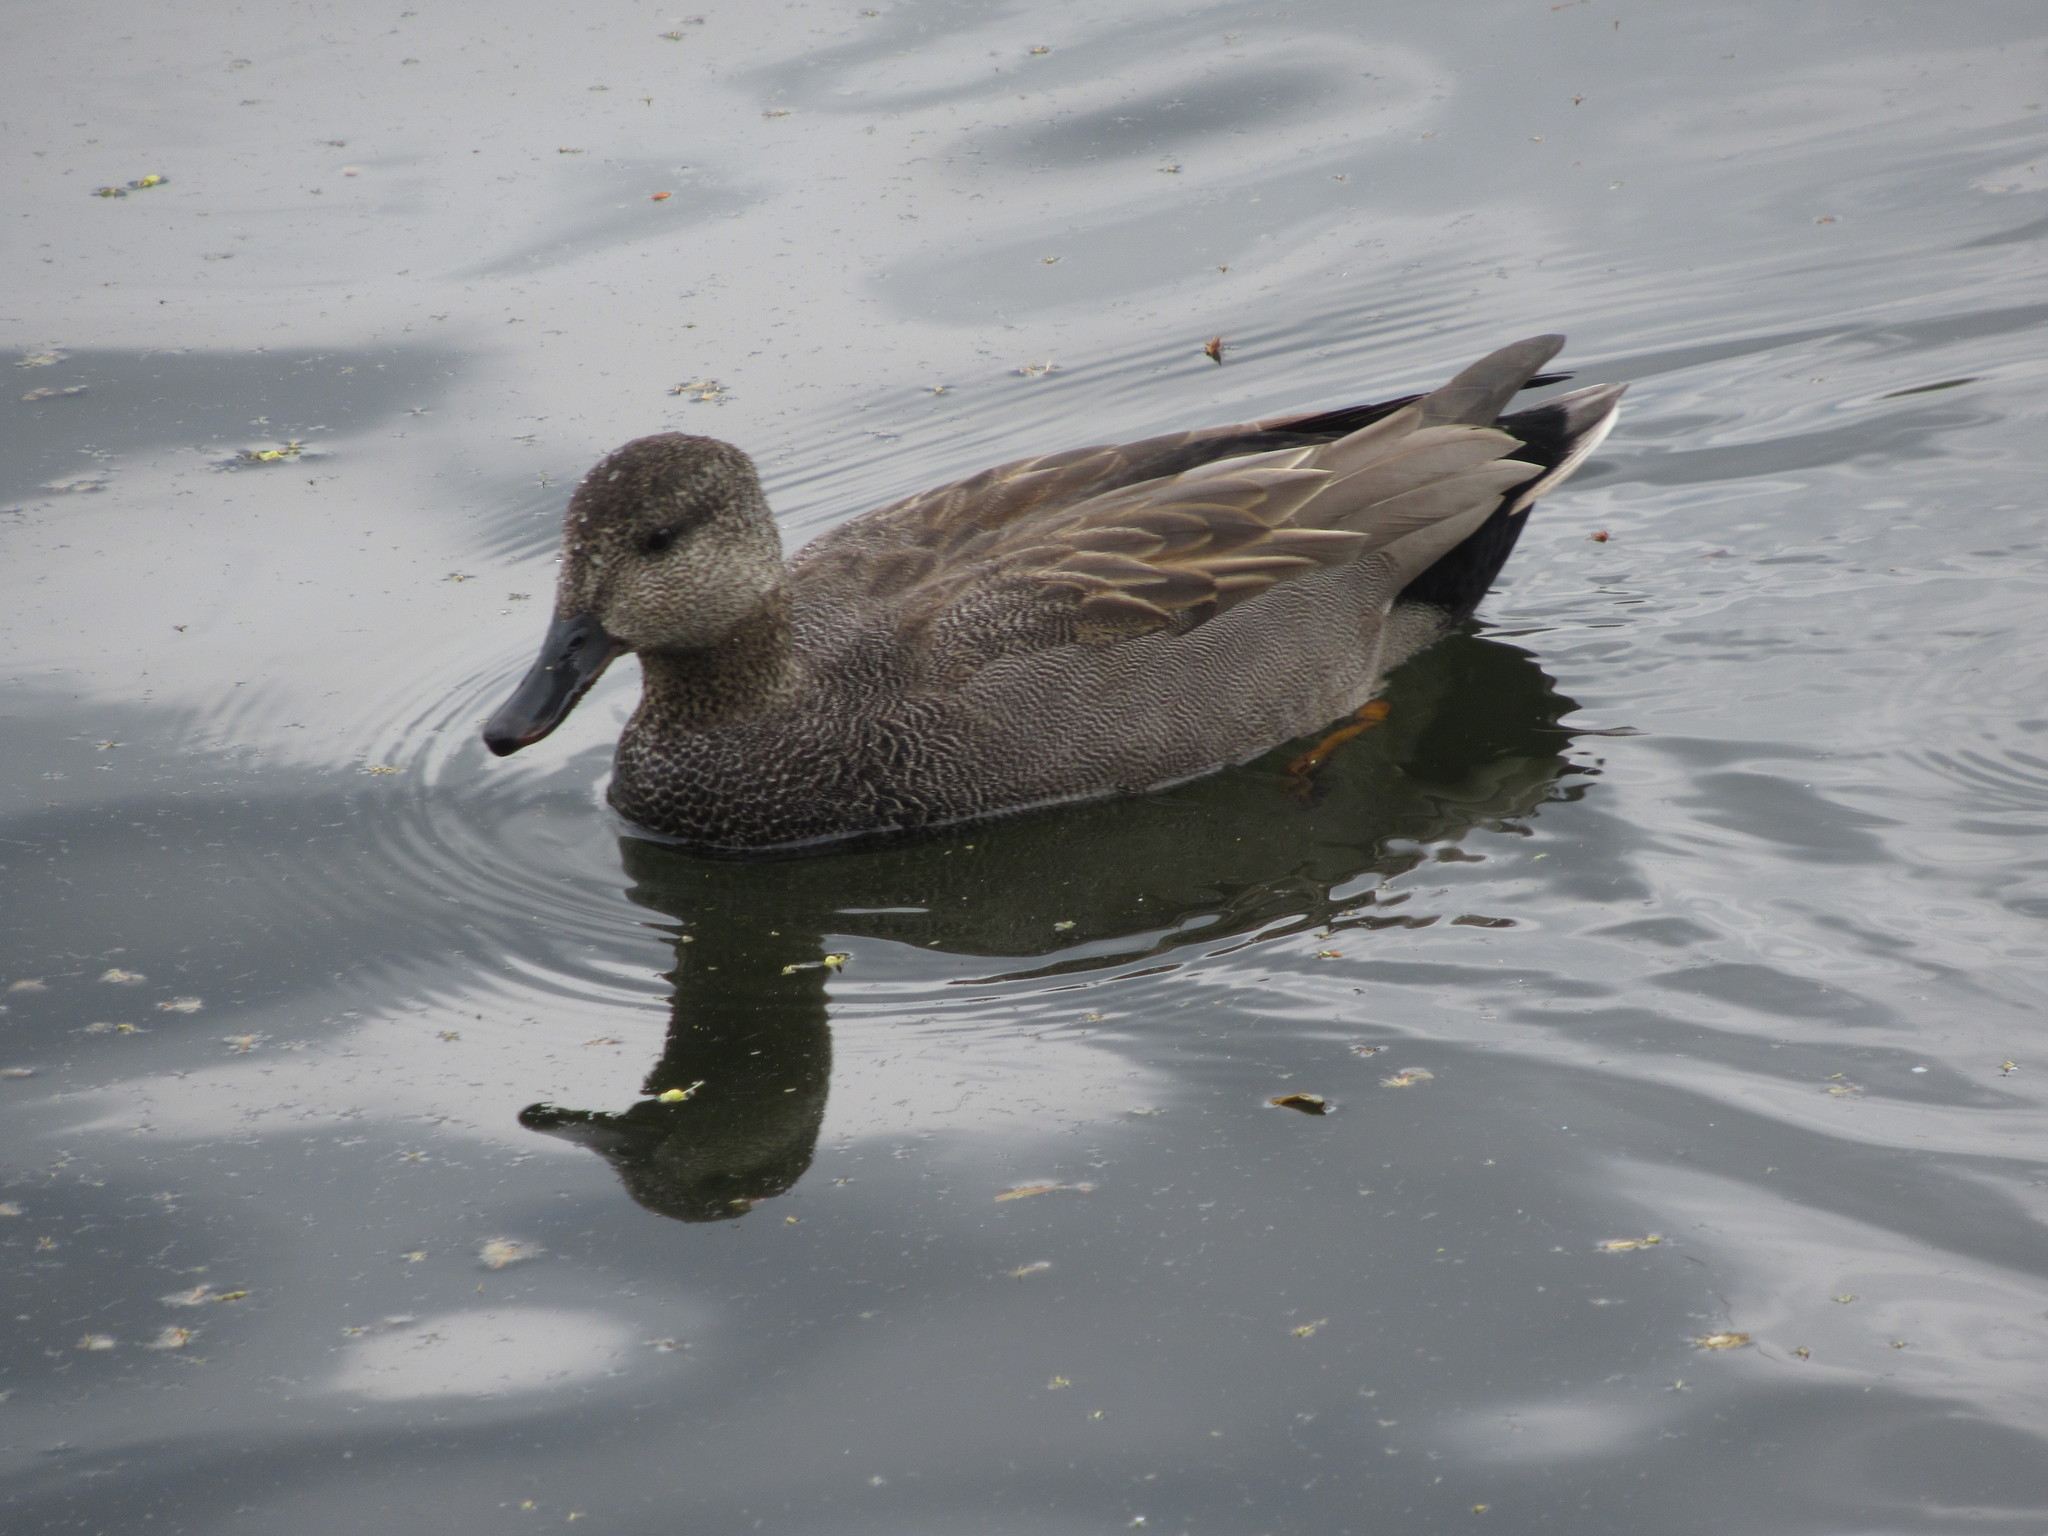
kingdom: Animalia
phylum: Chordata
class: Aves
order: Anseriformes
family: Anatidae
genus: Mareca
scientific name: Mareca strepera
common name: Gadwall
